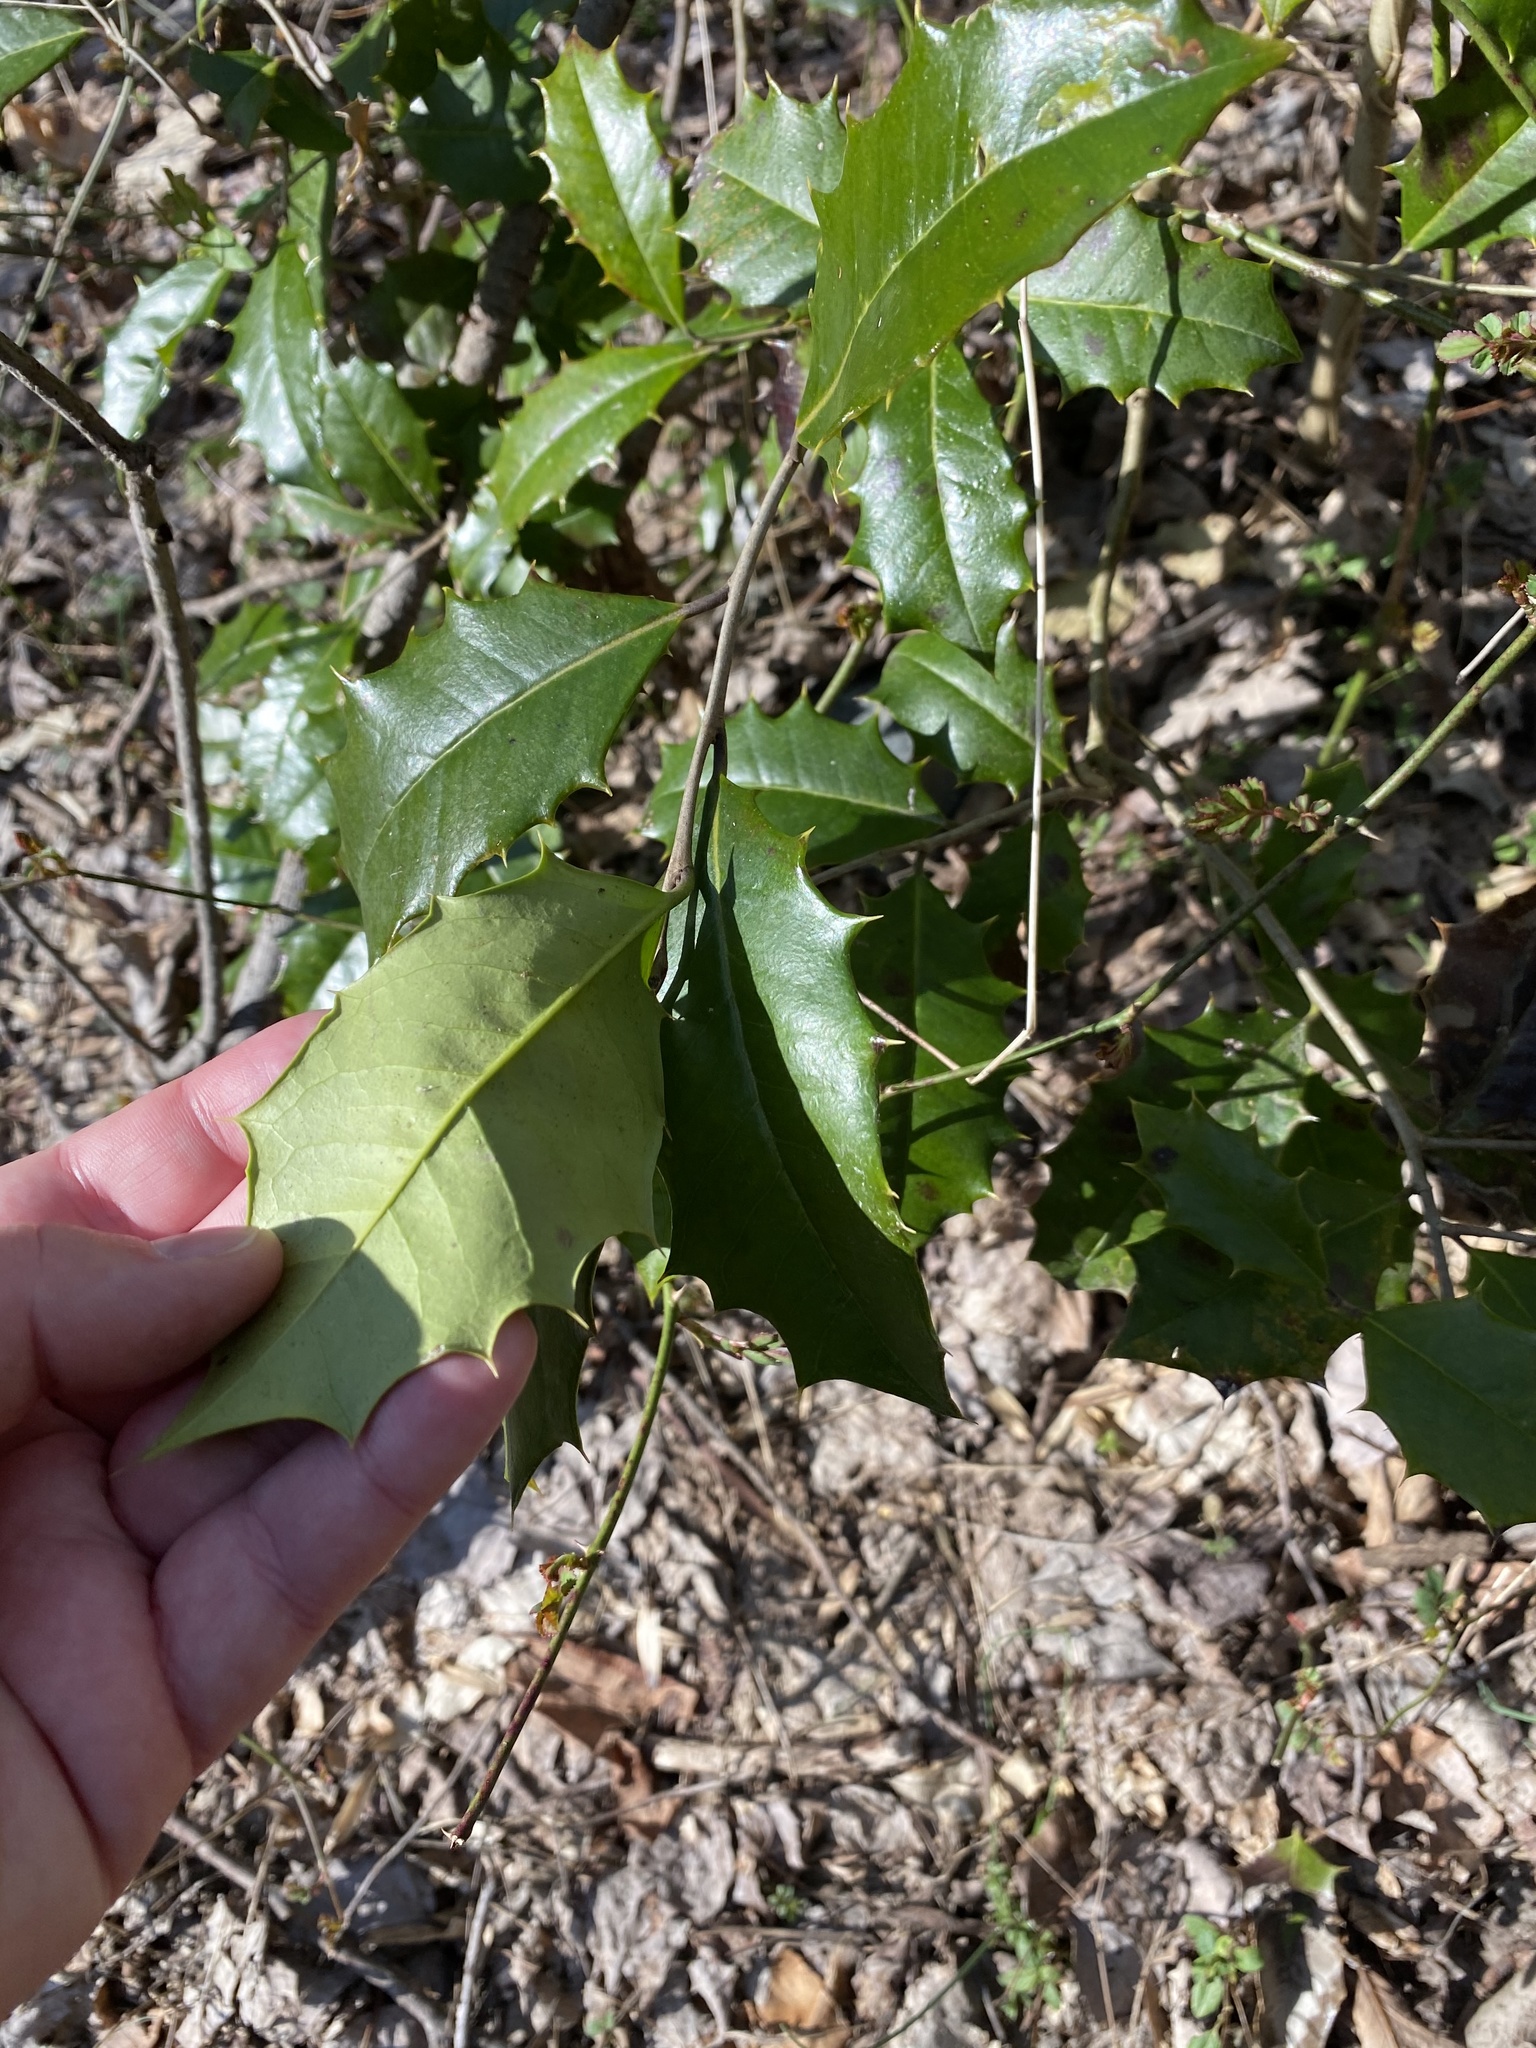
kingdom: Plantae
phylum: Tracheophyta
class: Magnoliopsida
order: Aquifoliales
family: Aquifoliaceae
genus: Ilex
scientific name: Ilex opaca
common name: American holly
